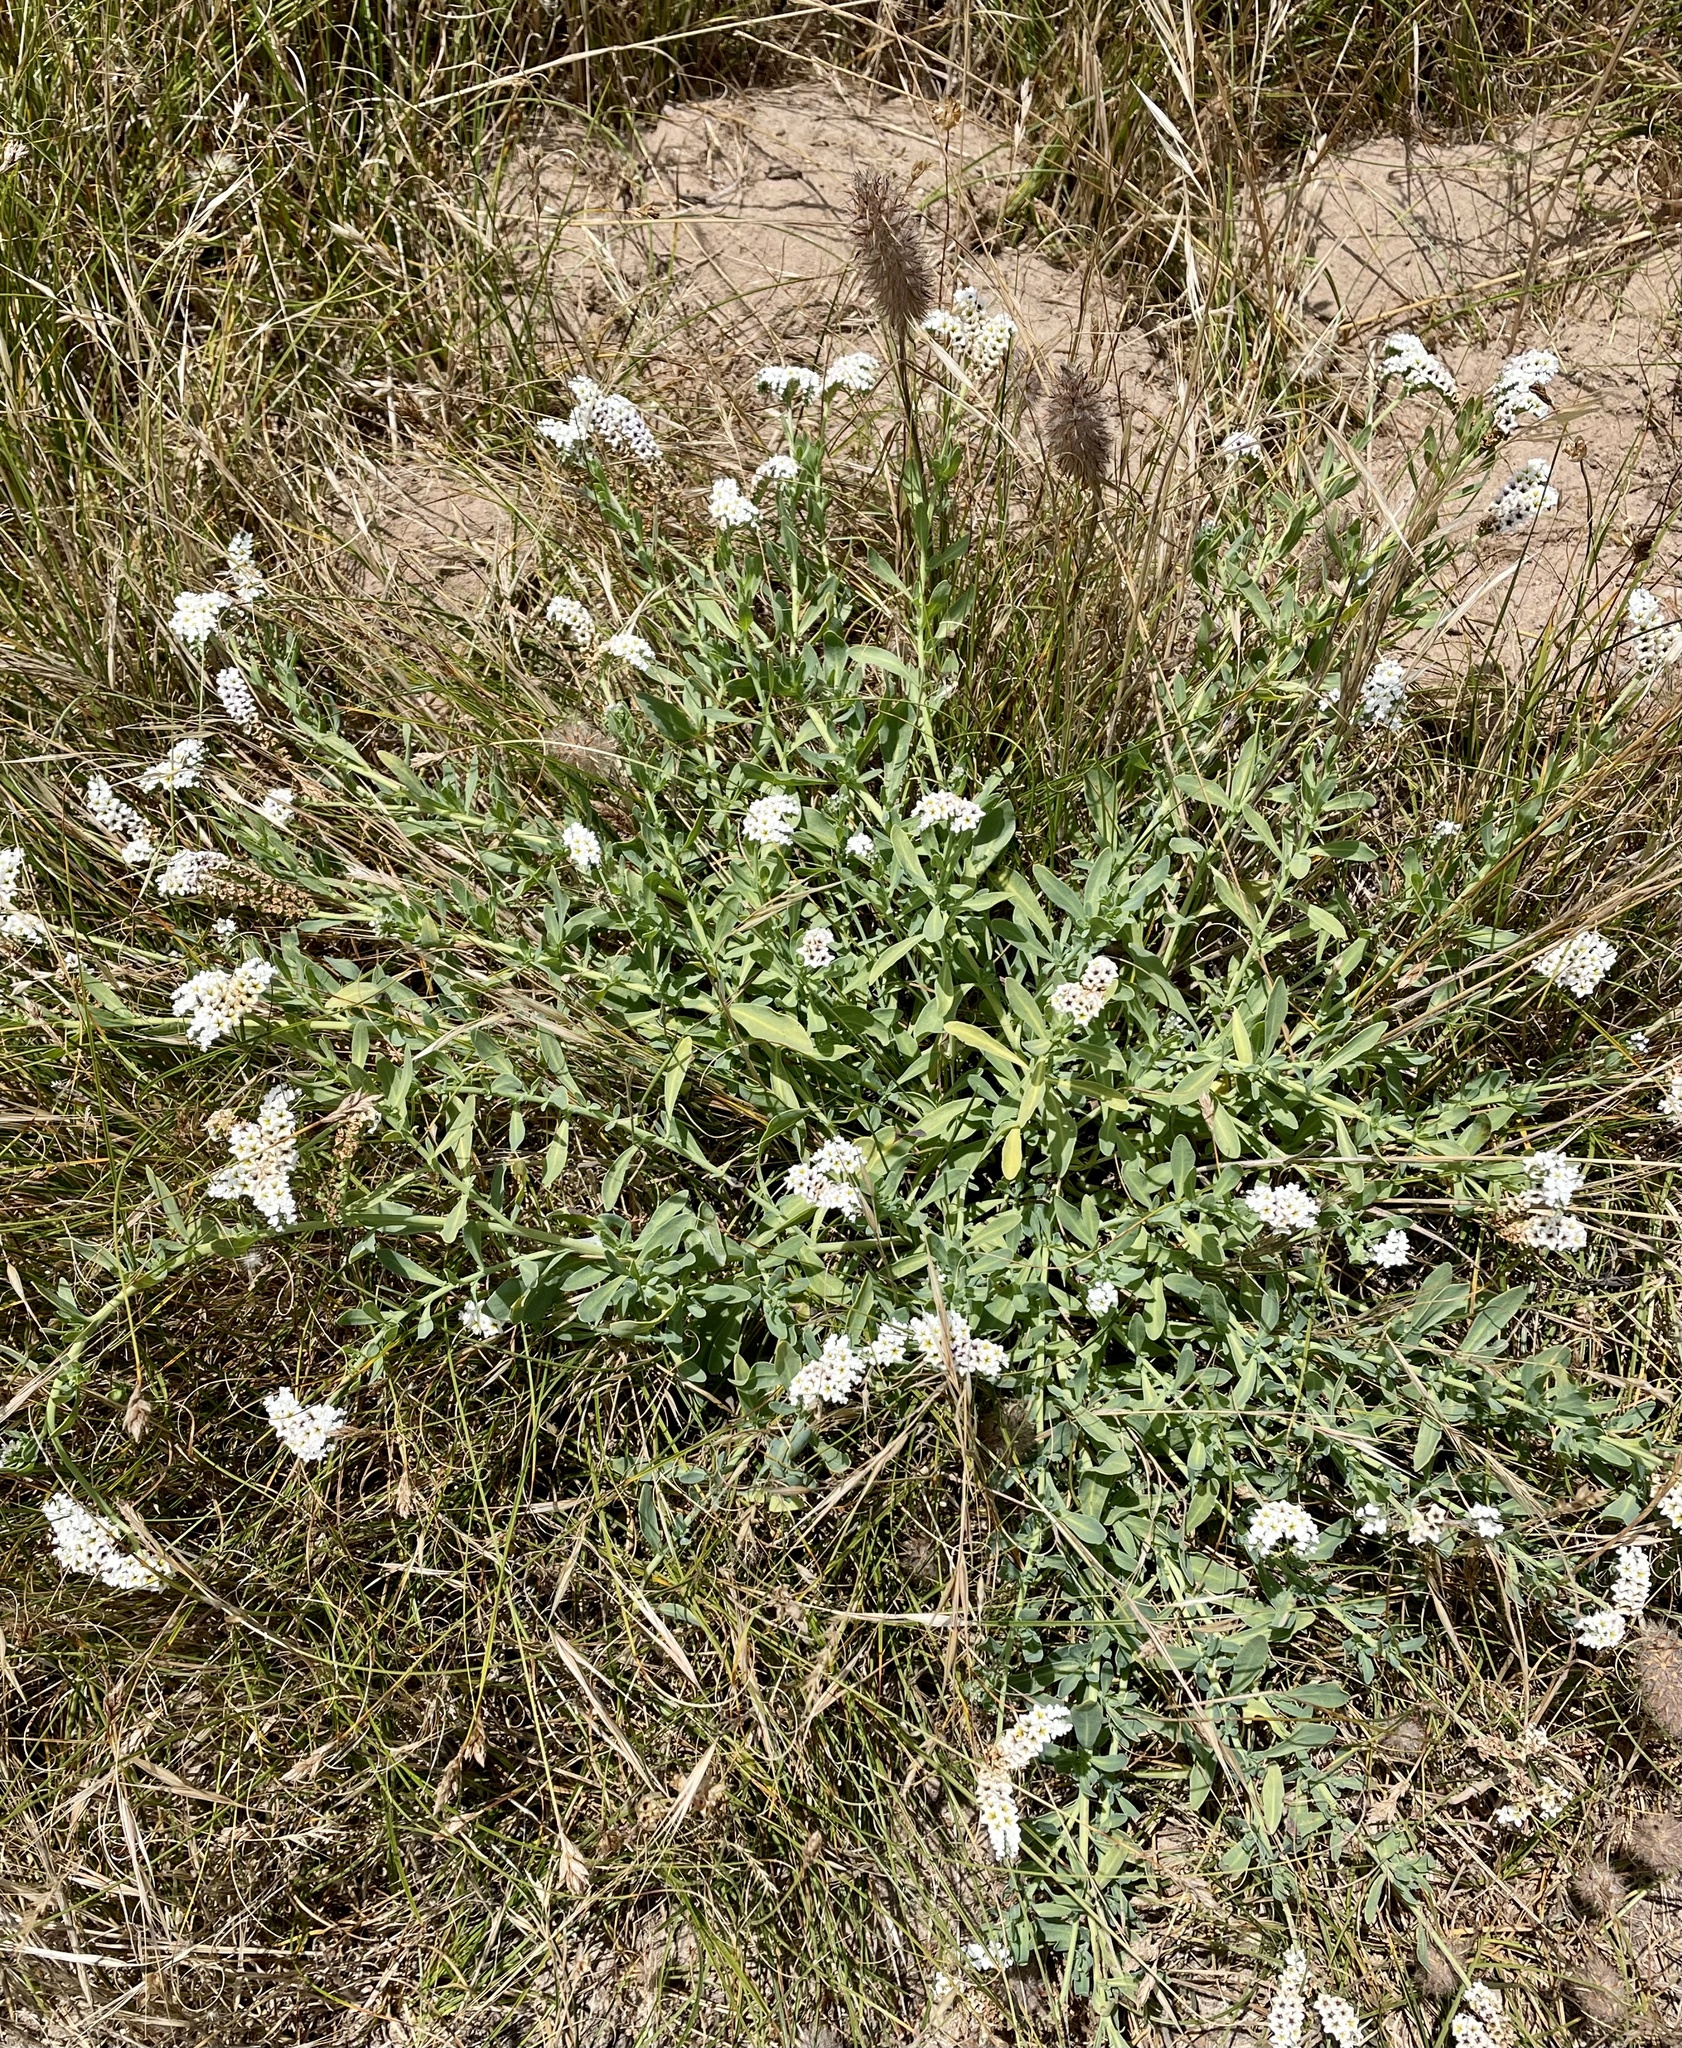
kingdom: Plantae
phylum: Tracheophyta
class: Magnoliopsida
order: Boraginales
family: Heliotropiaceae
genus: Heliotropium
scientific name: Heliotropium curassavicum
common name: Seaside heliotrope
